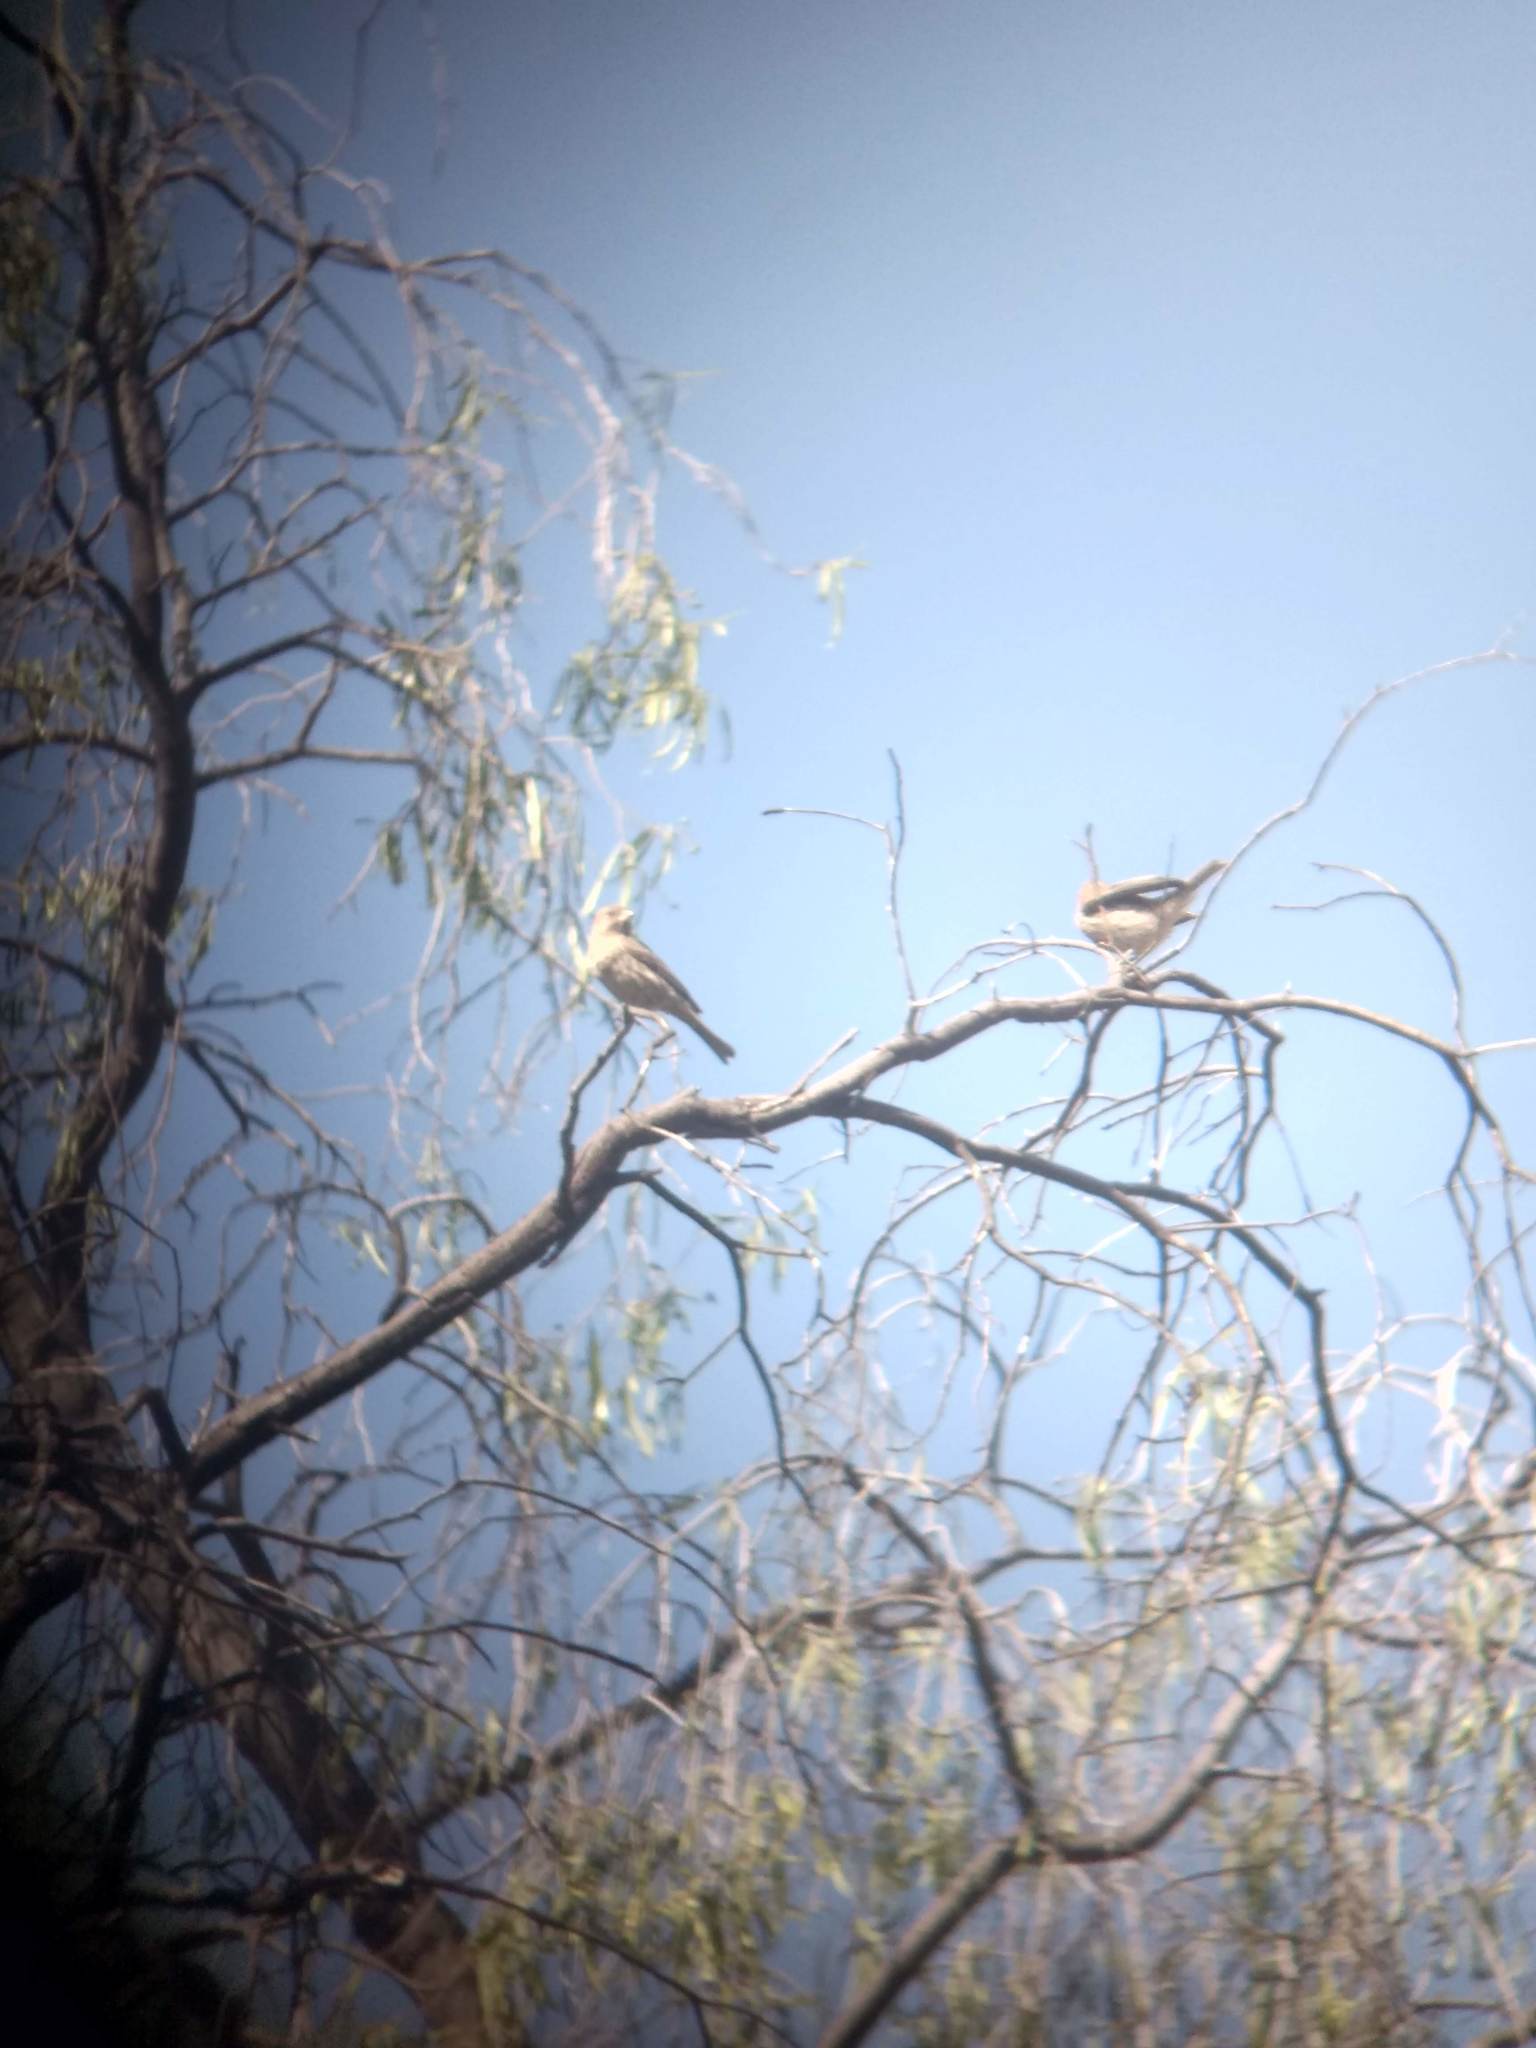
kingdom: Animalia
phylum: Chordata
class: Aves
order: Passeriformes
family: Fringillidae
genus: Haemorhous
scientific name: Haemorhous mexicanus
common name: House finch
